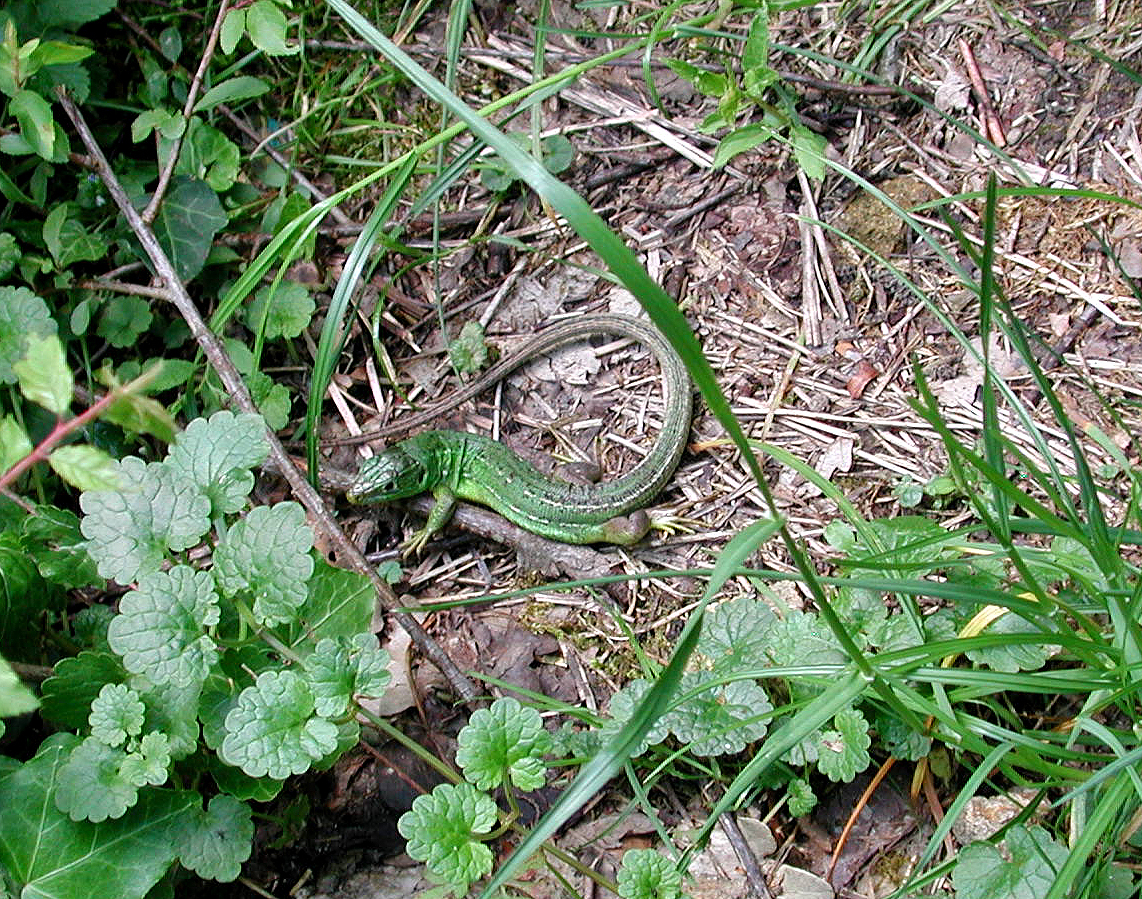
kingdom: Animalia
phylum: Chordata
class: Squamata
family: Lacertidae
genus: Lacerta
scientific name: Lacerta bilineata
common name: Western green lizard
